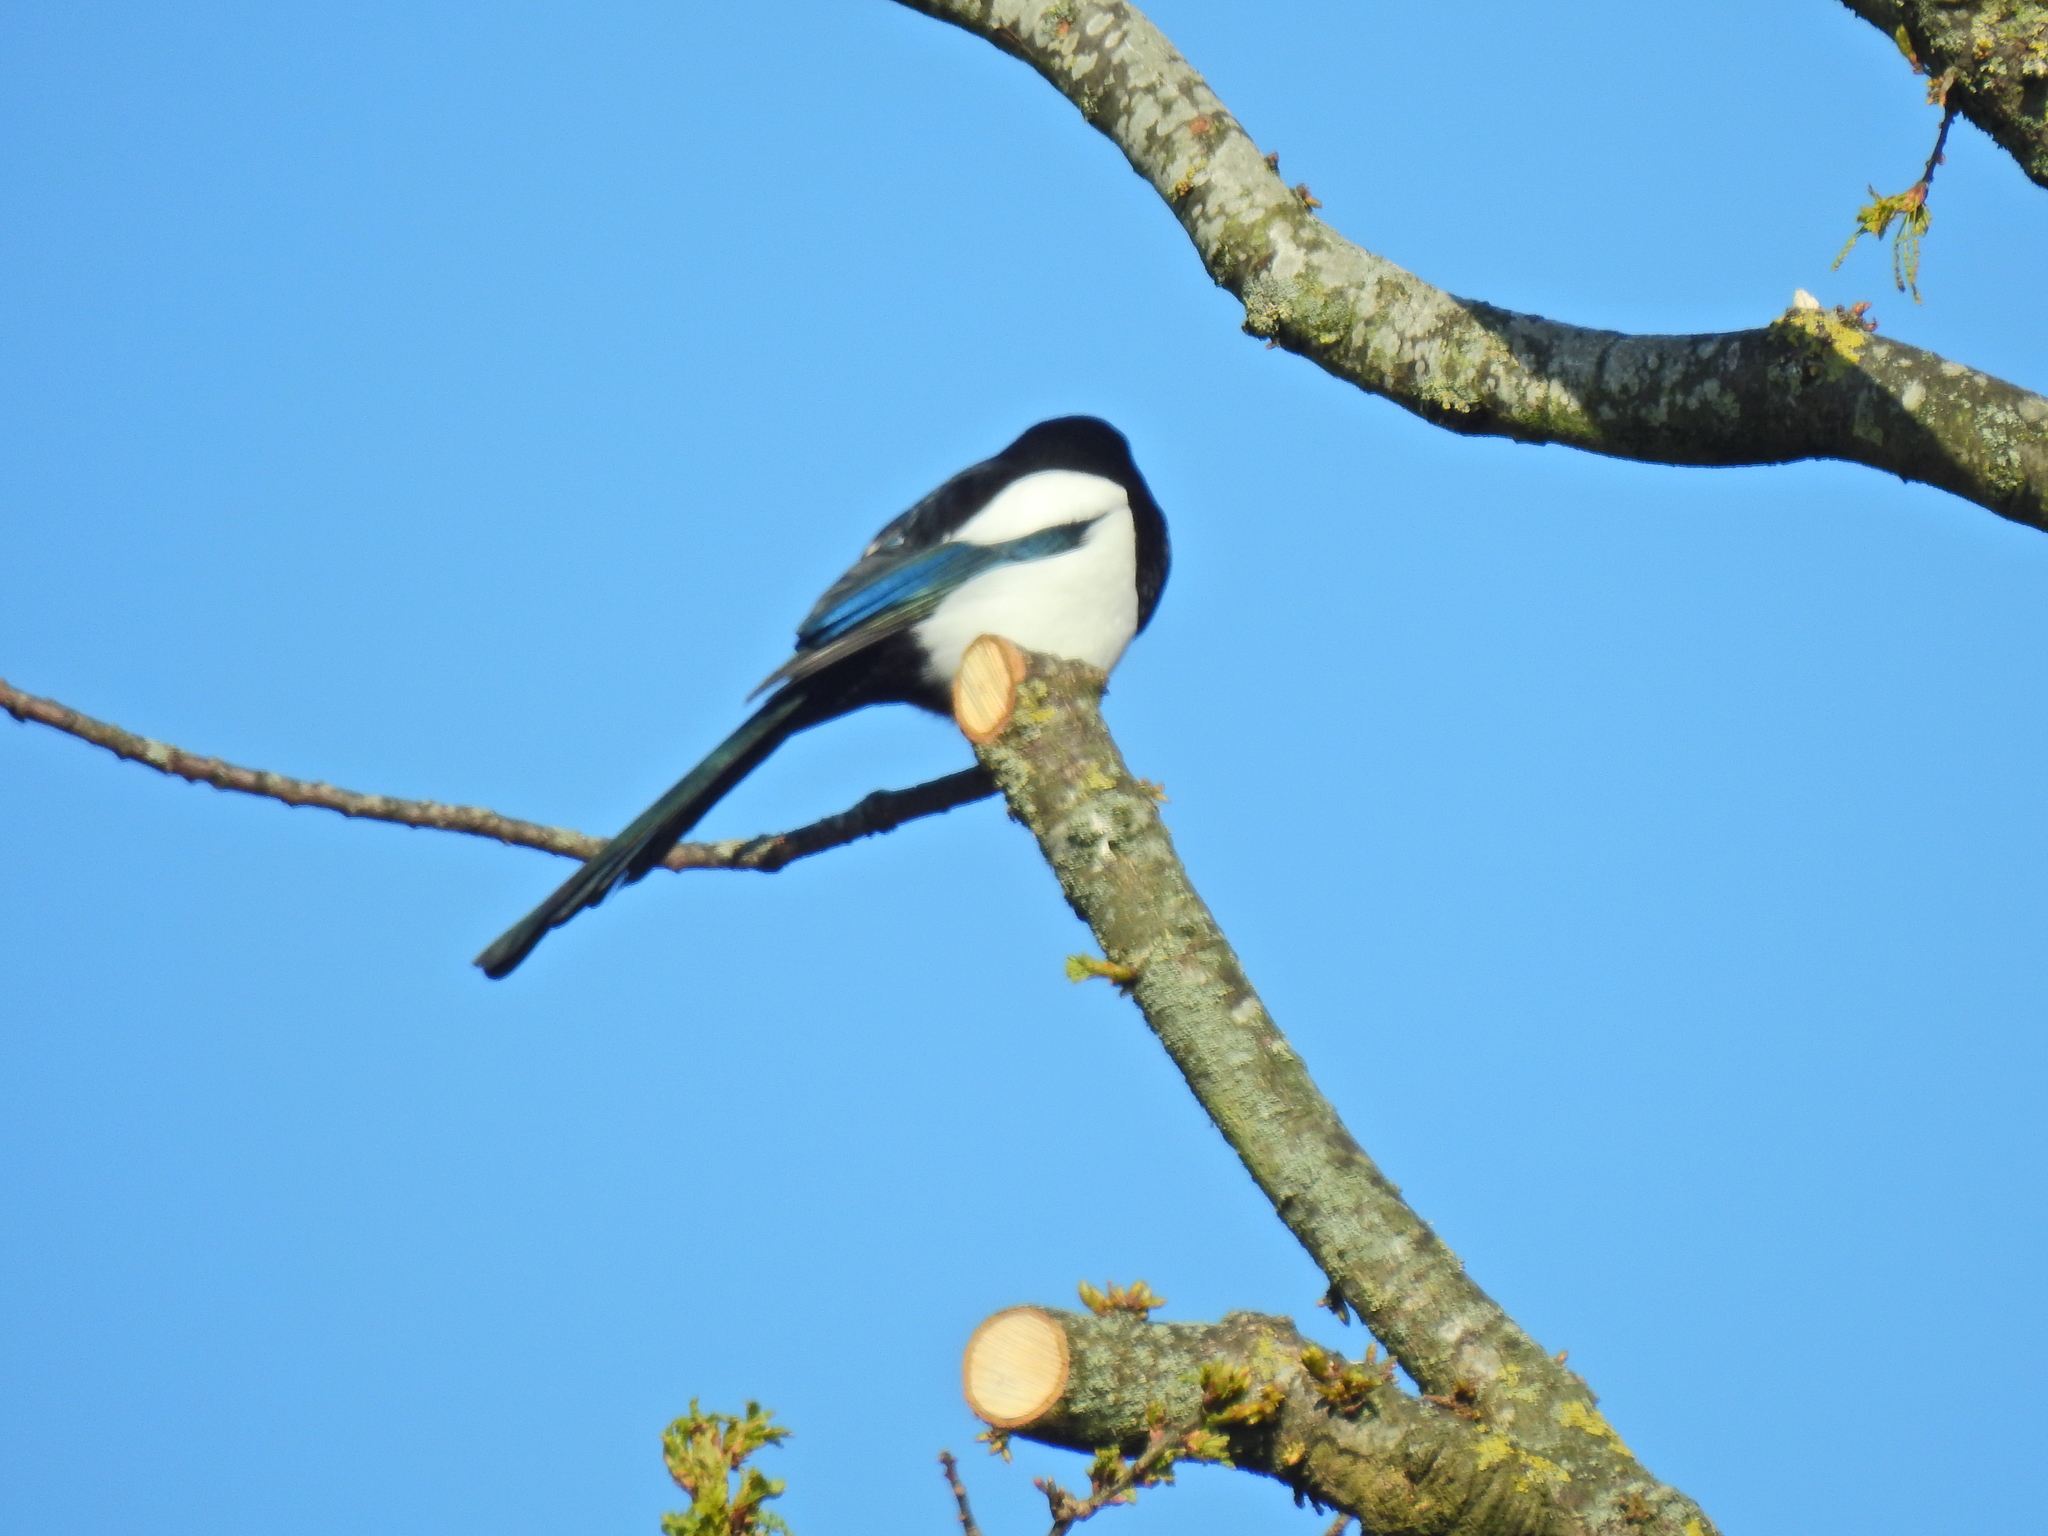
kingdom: Animalia
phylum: Chordata
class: Aves
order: Passeriformes
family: Corvidae
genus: Pica
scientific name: Pica pica
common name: Eurasian magpie
